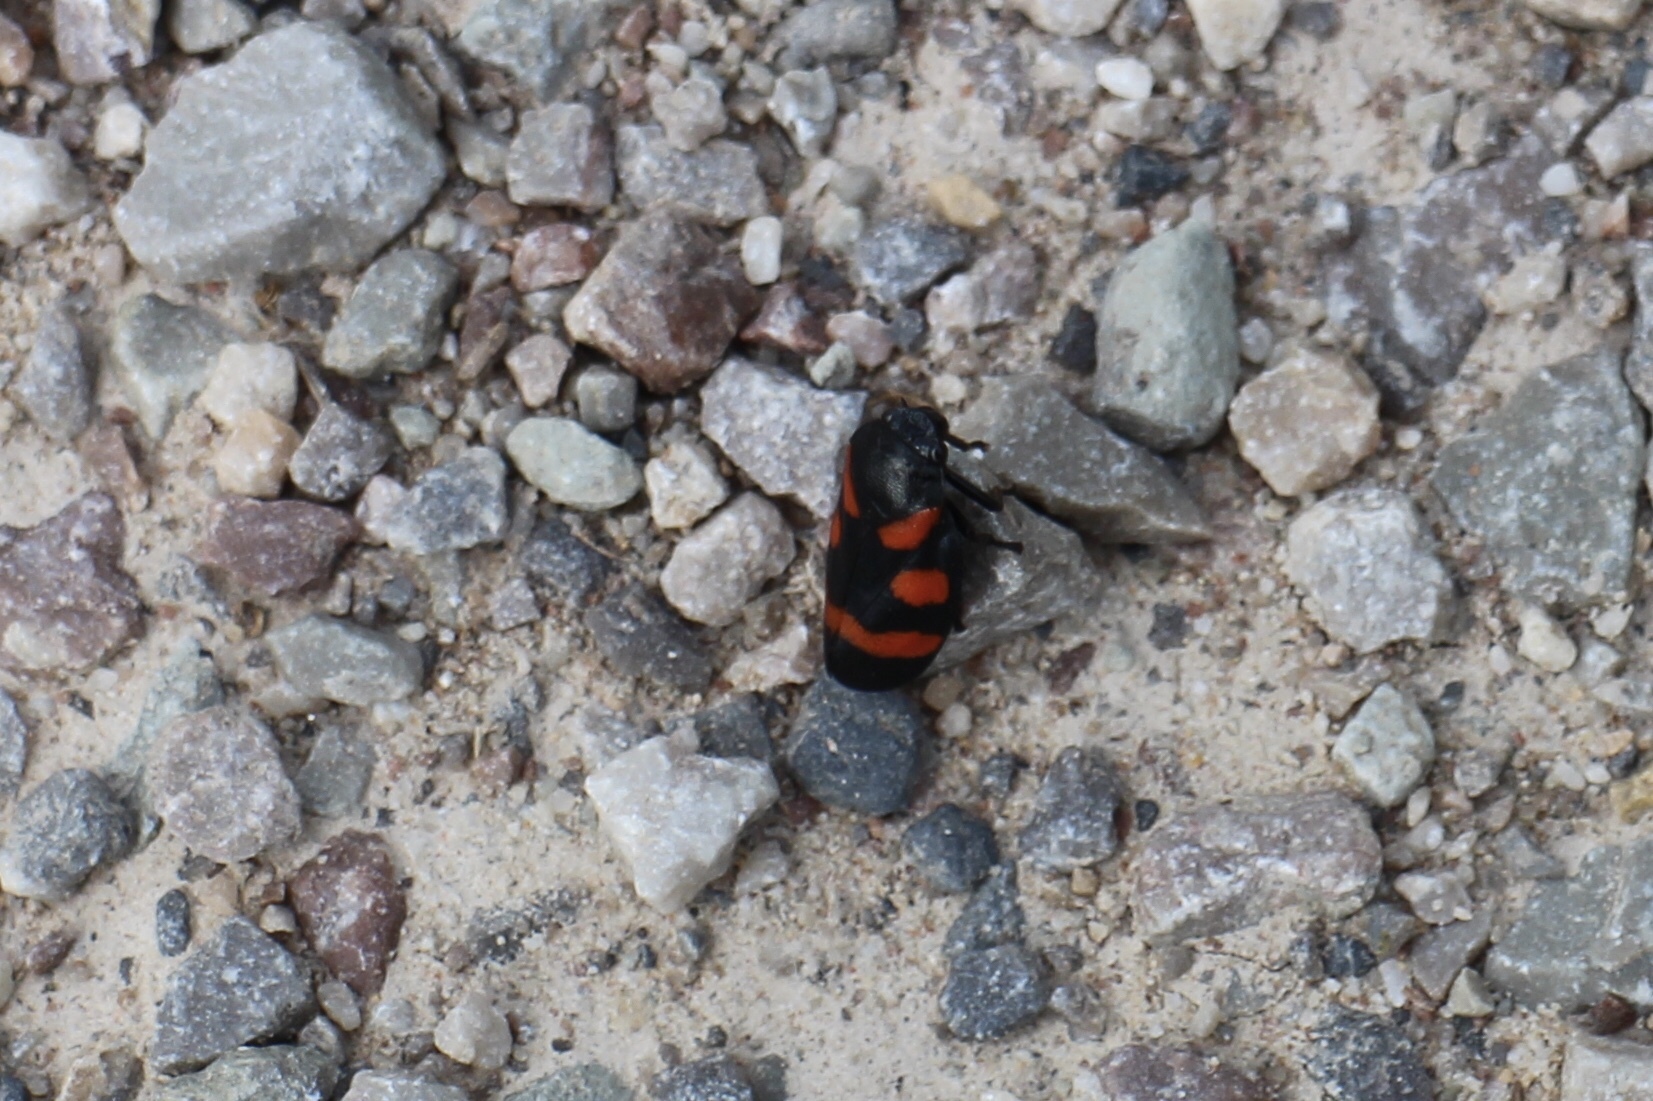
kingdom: Animalia
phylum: Arthropoda
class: Insecta
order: Hemiptera
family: Cercopidae
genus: Cercopis
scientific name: Cercopis vulnerata
